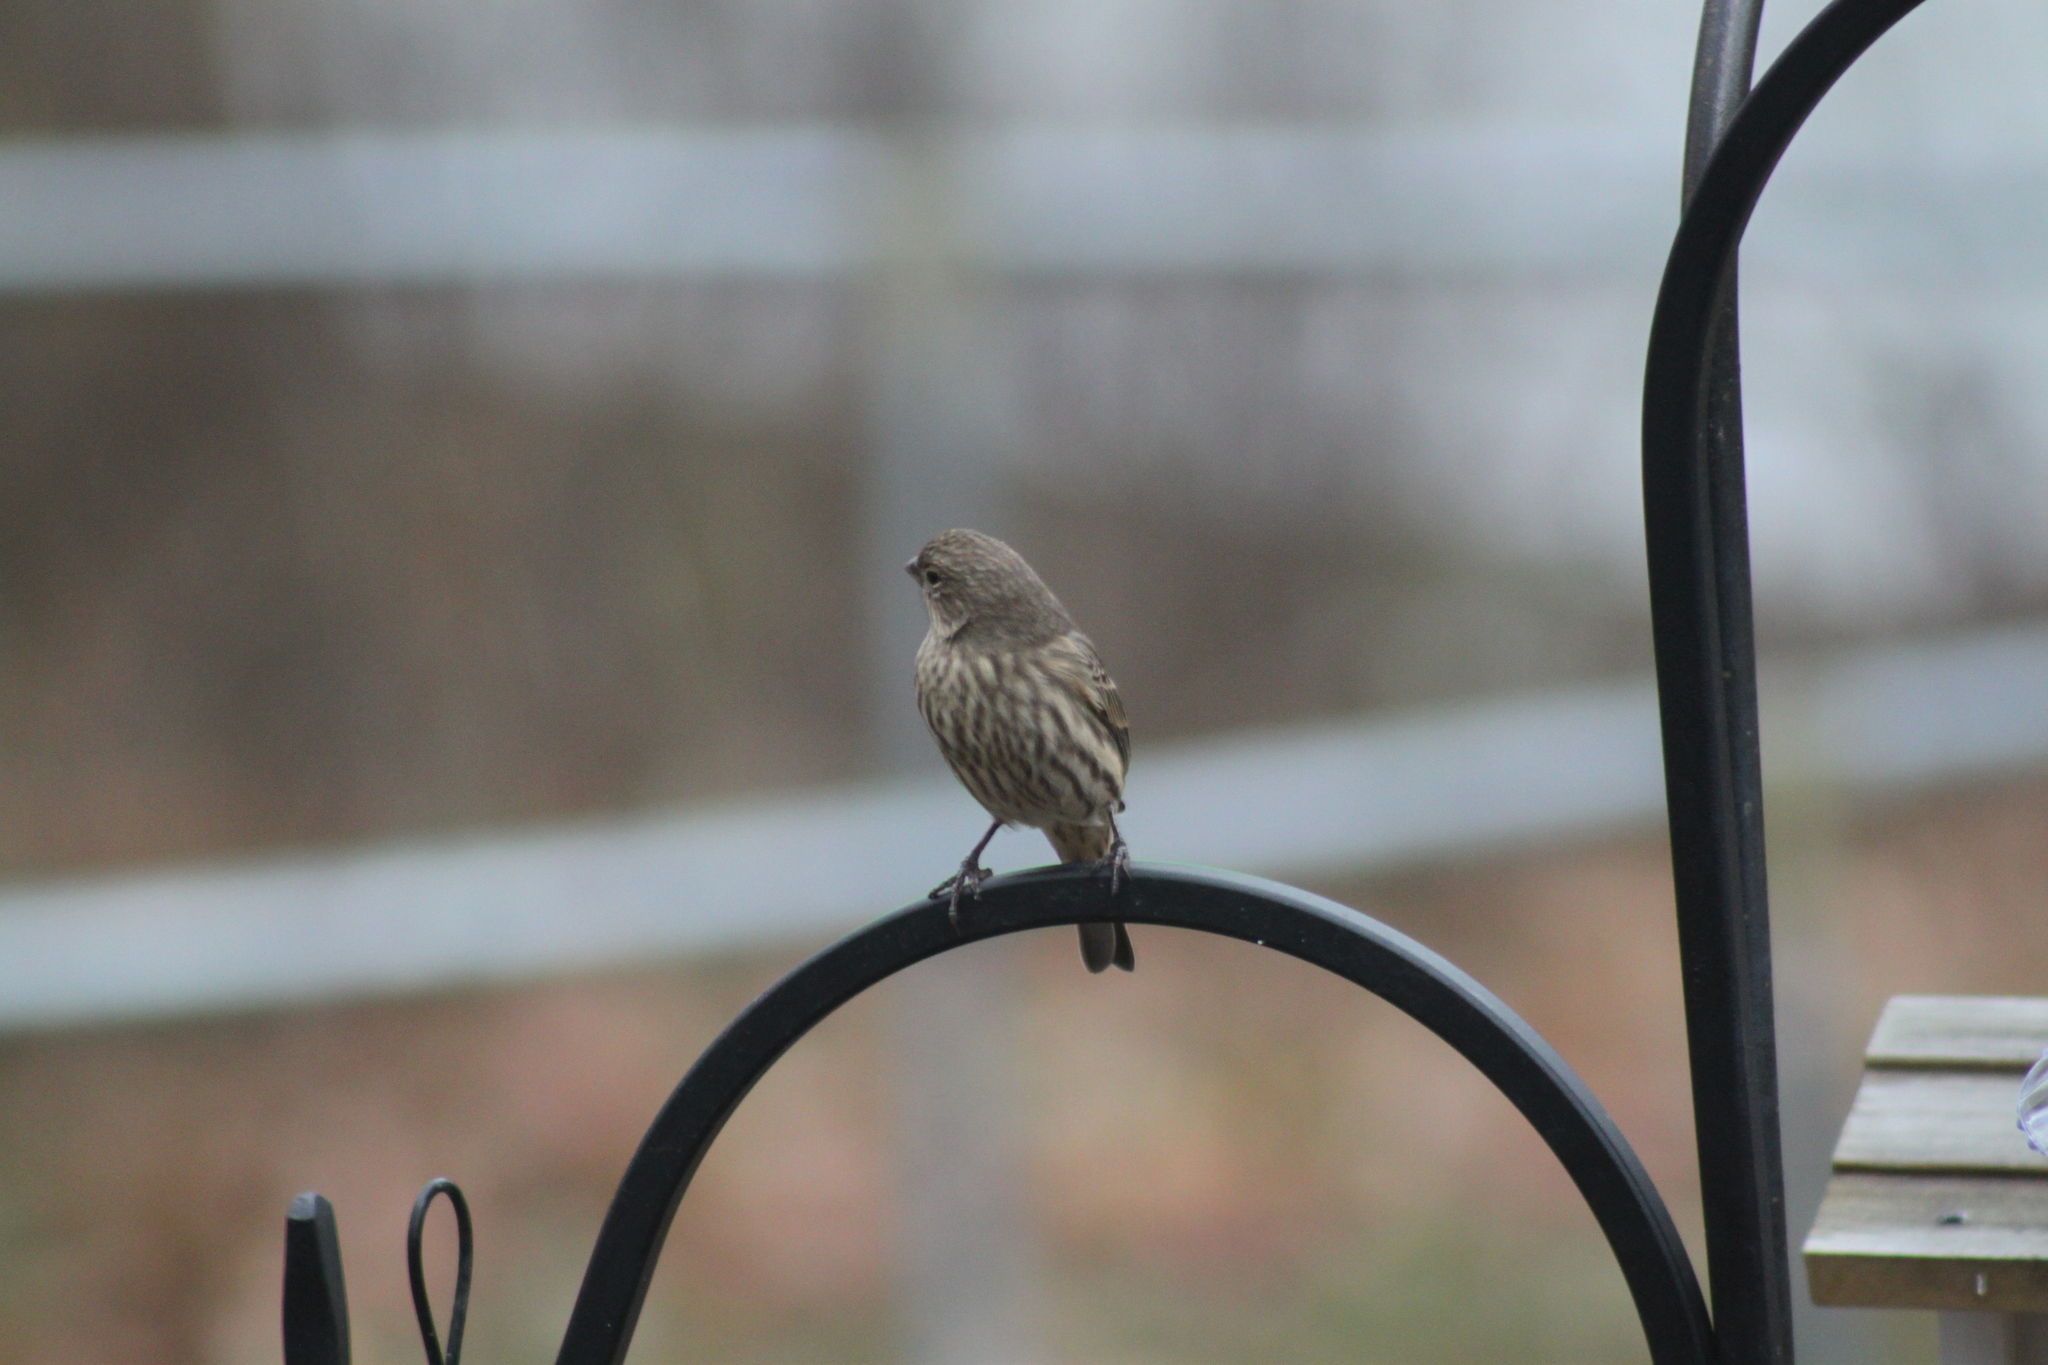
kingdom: Animalia
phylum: Chordata
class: Aves
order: Passeriformes
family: Fringillidae
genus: Haemorhous
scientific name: Haemorhous mexicanus
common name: House finch
